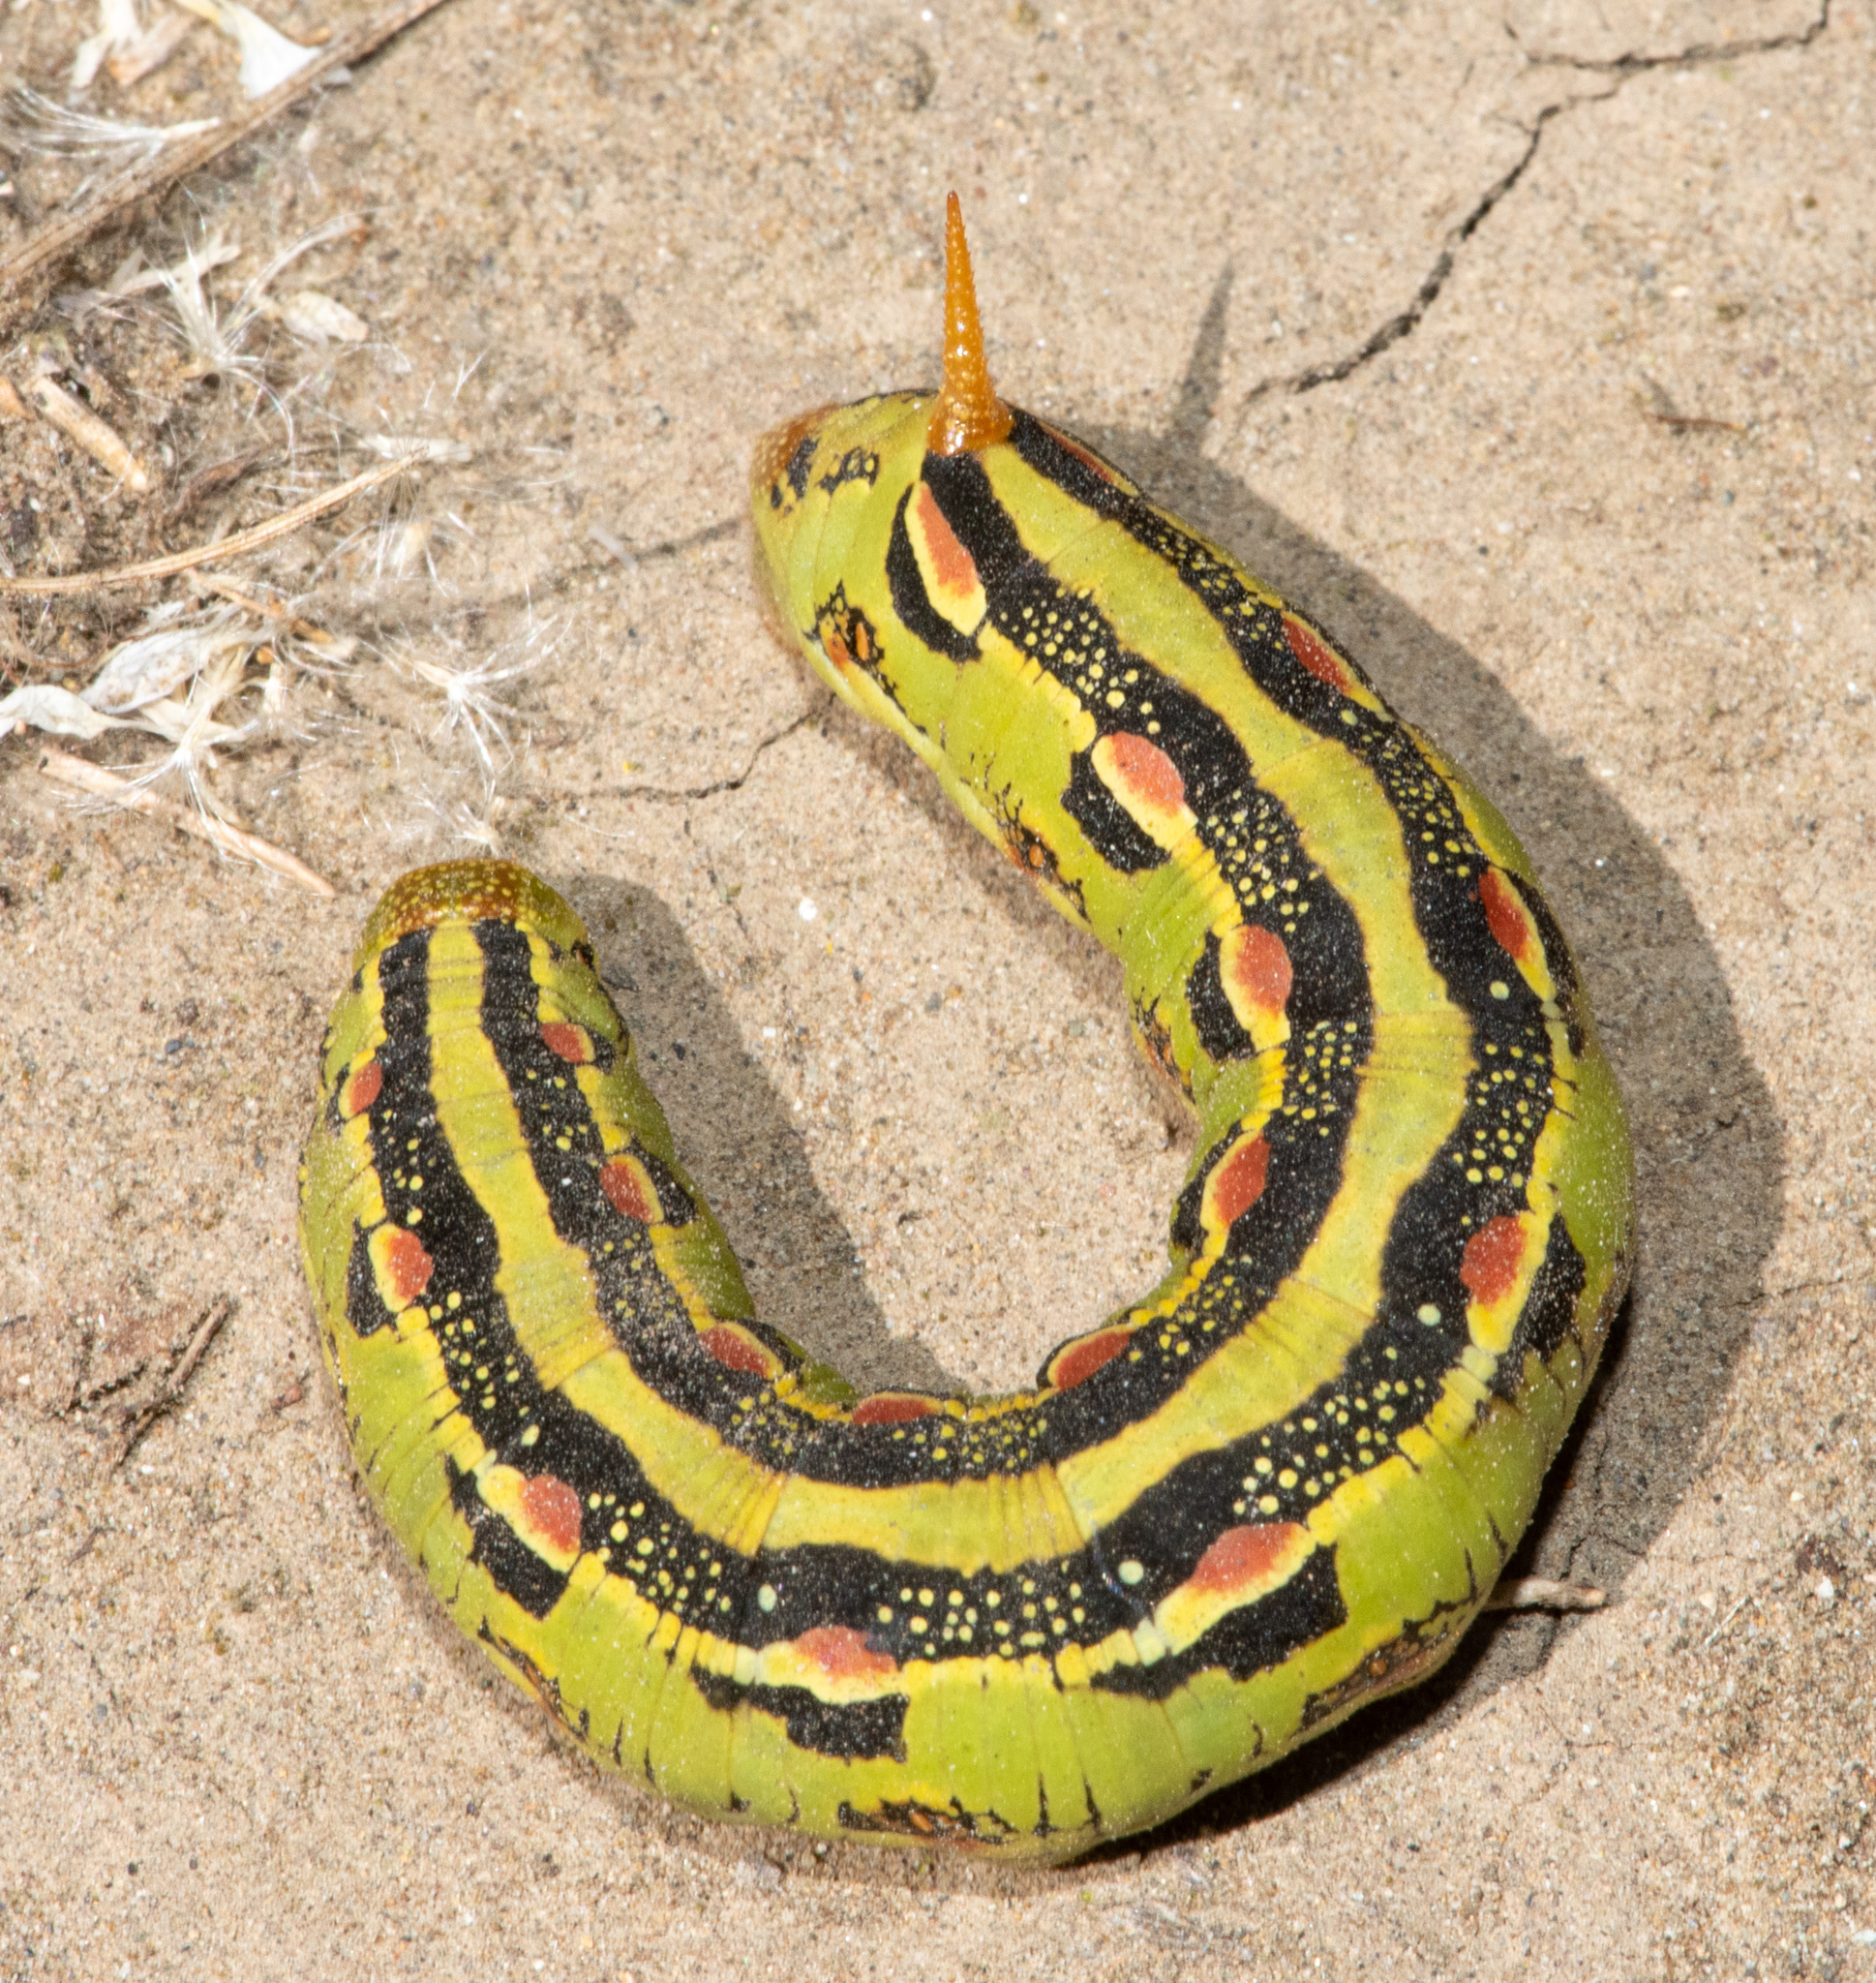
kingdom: Animalia
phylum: Arthropoda
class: Insecta
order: Lepidoptera
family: Sphingidae
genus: Hyles
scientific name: Hyles lineata
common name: White-lined sphinx
